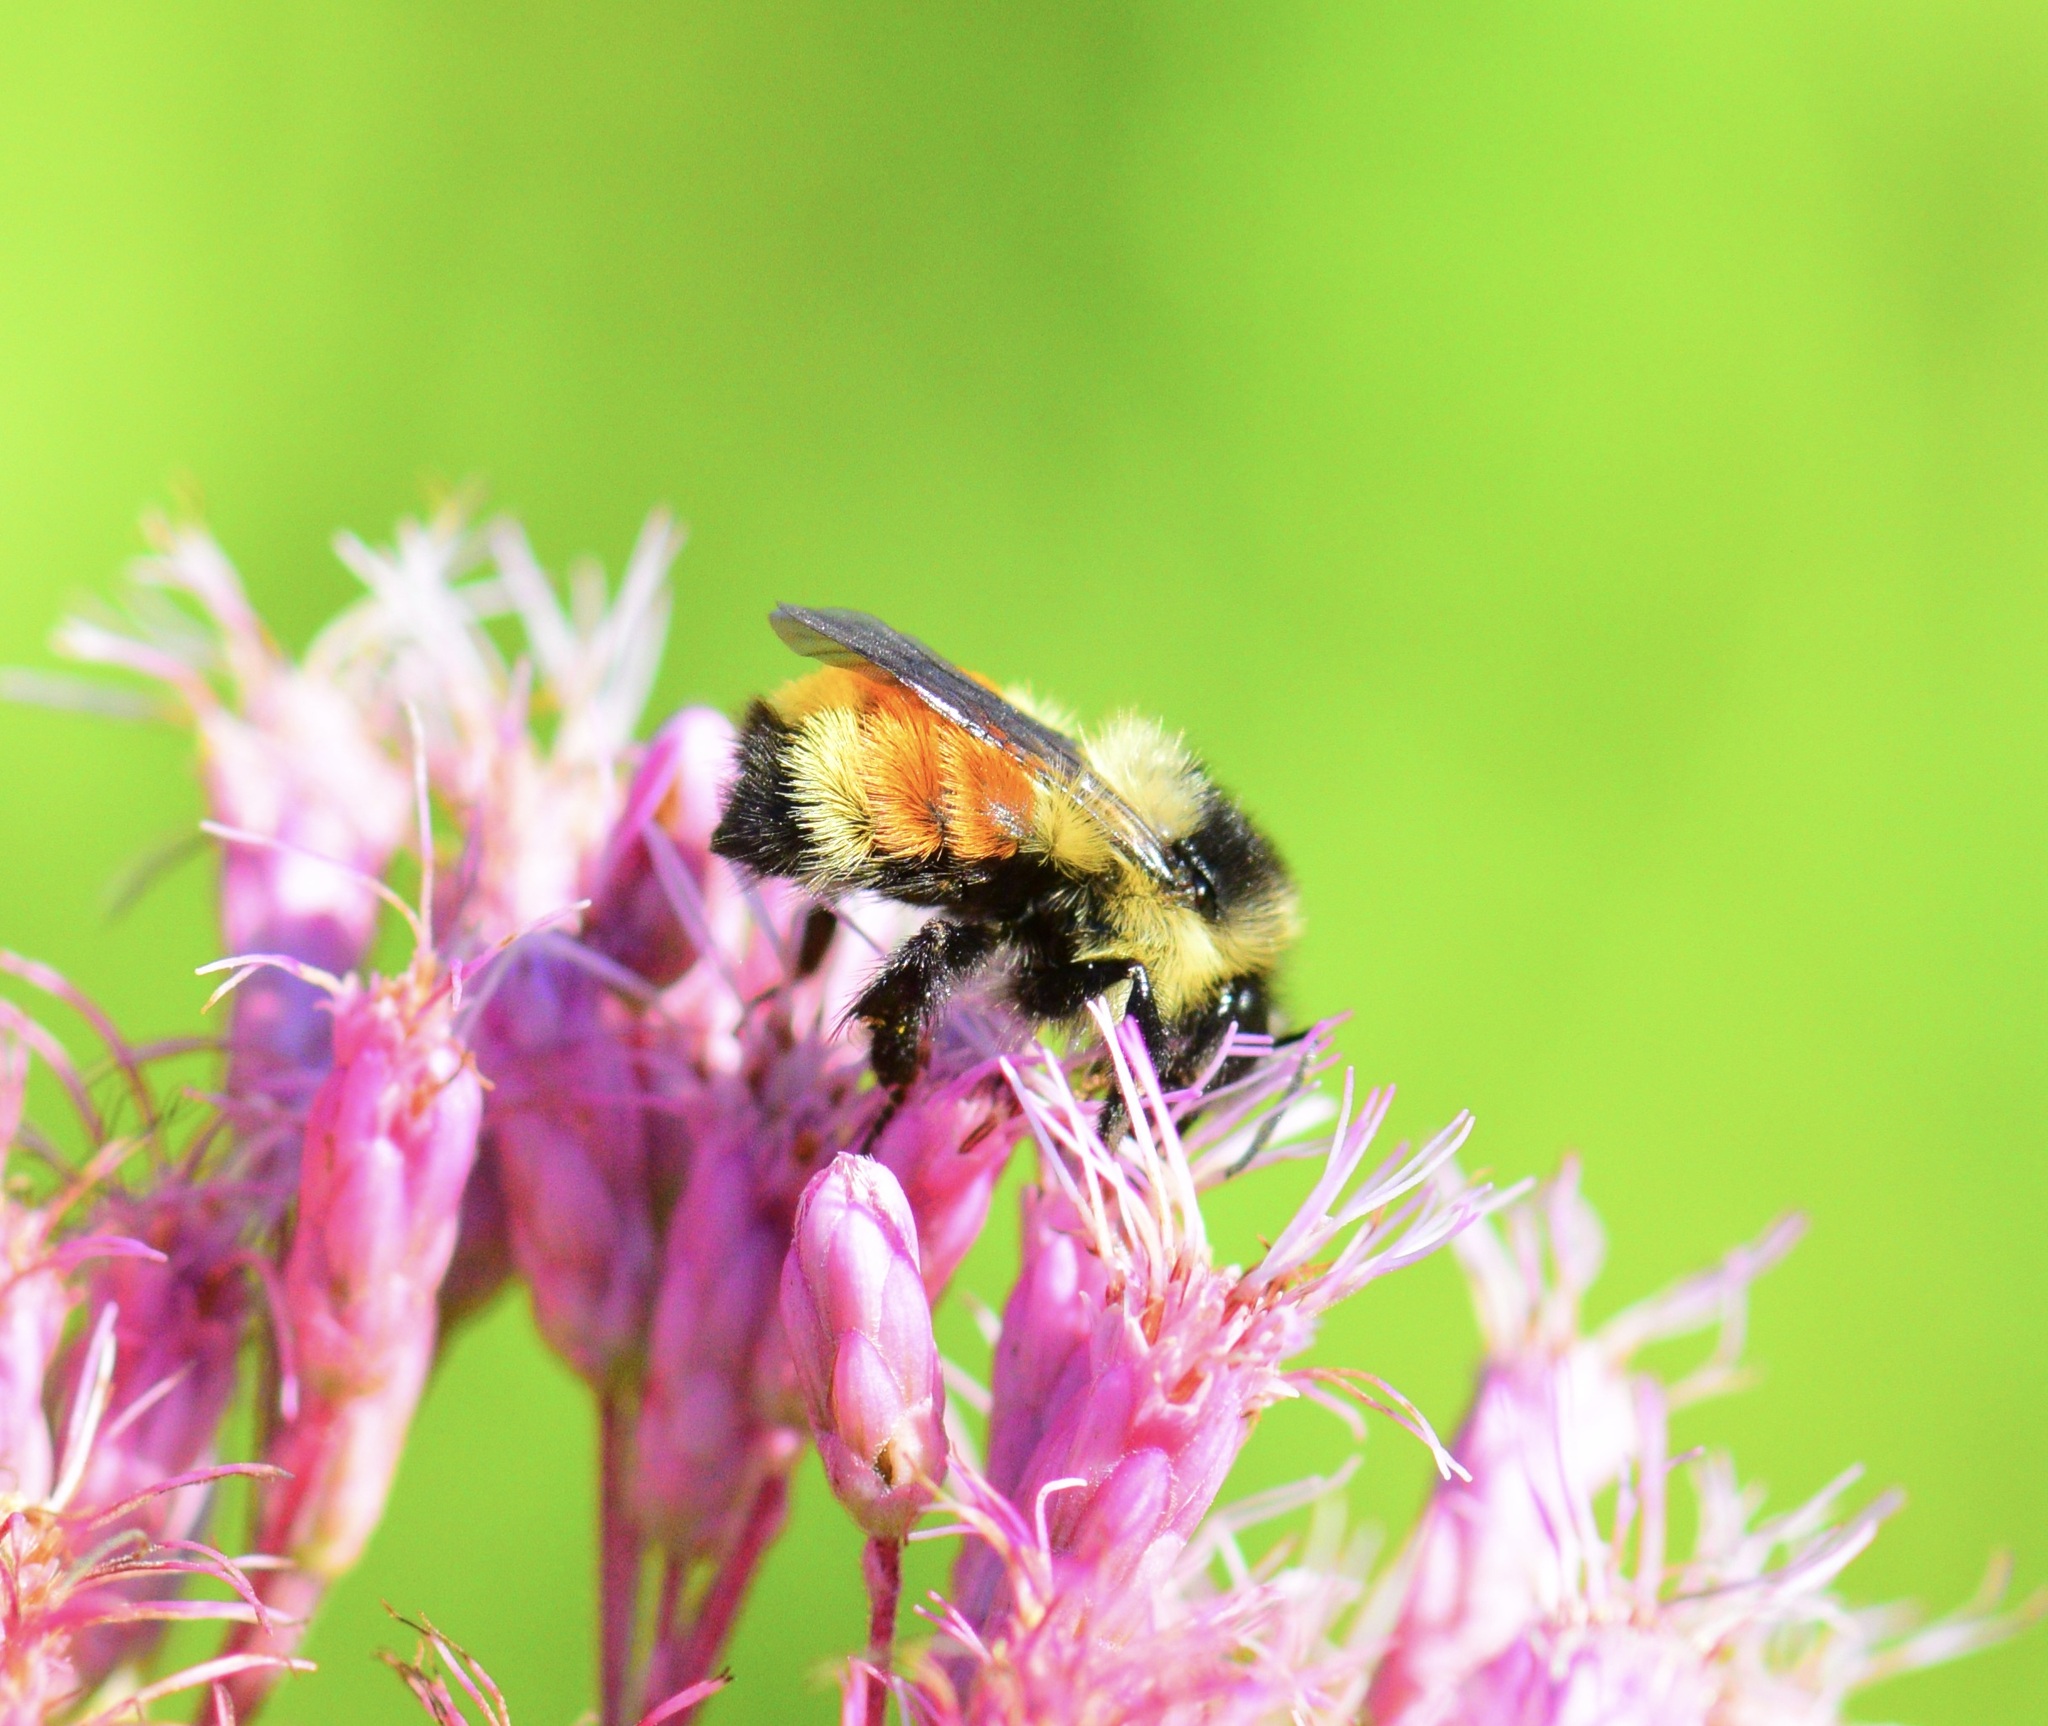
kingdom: Animalia
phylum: Arthropoda
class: Insecta
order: Hymenoptera
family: Apidae
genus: Bombus
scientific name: Bombus ternarius
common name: Tri-colored bumble bee
